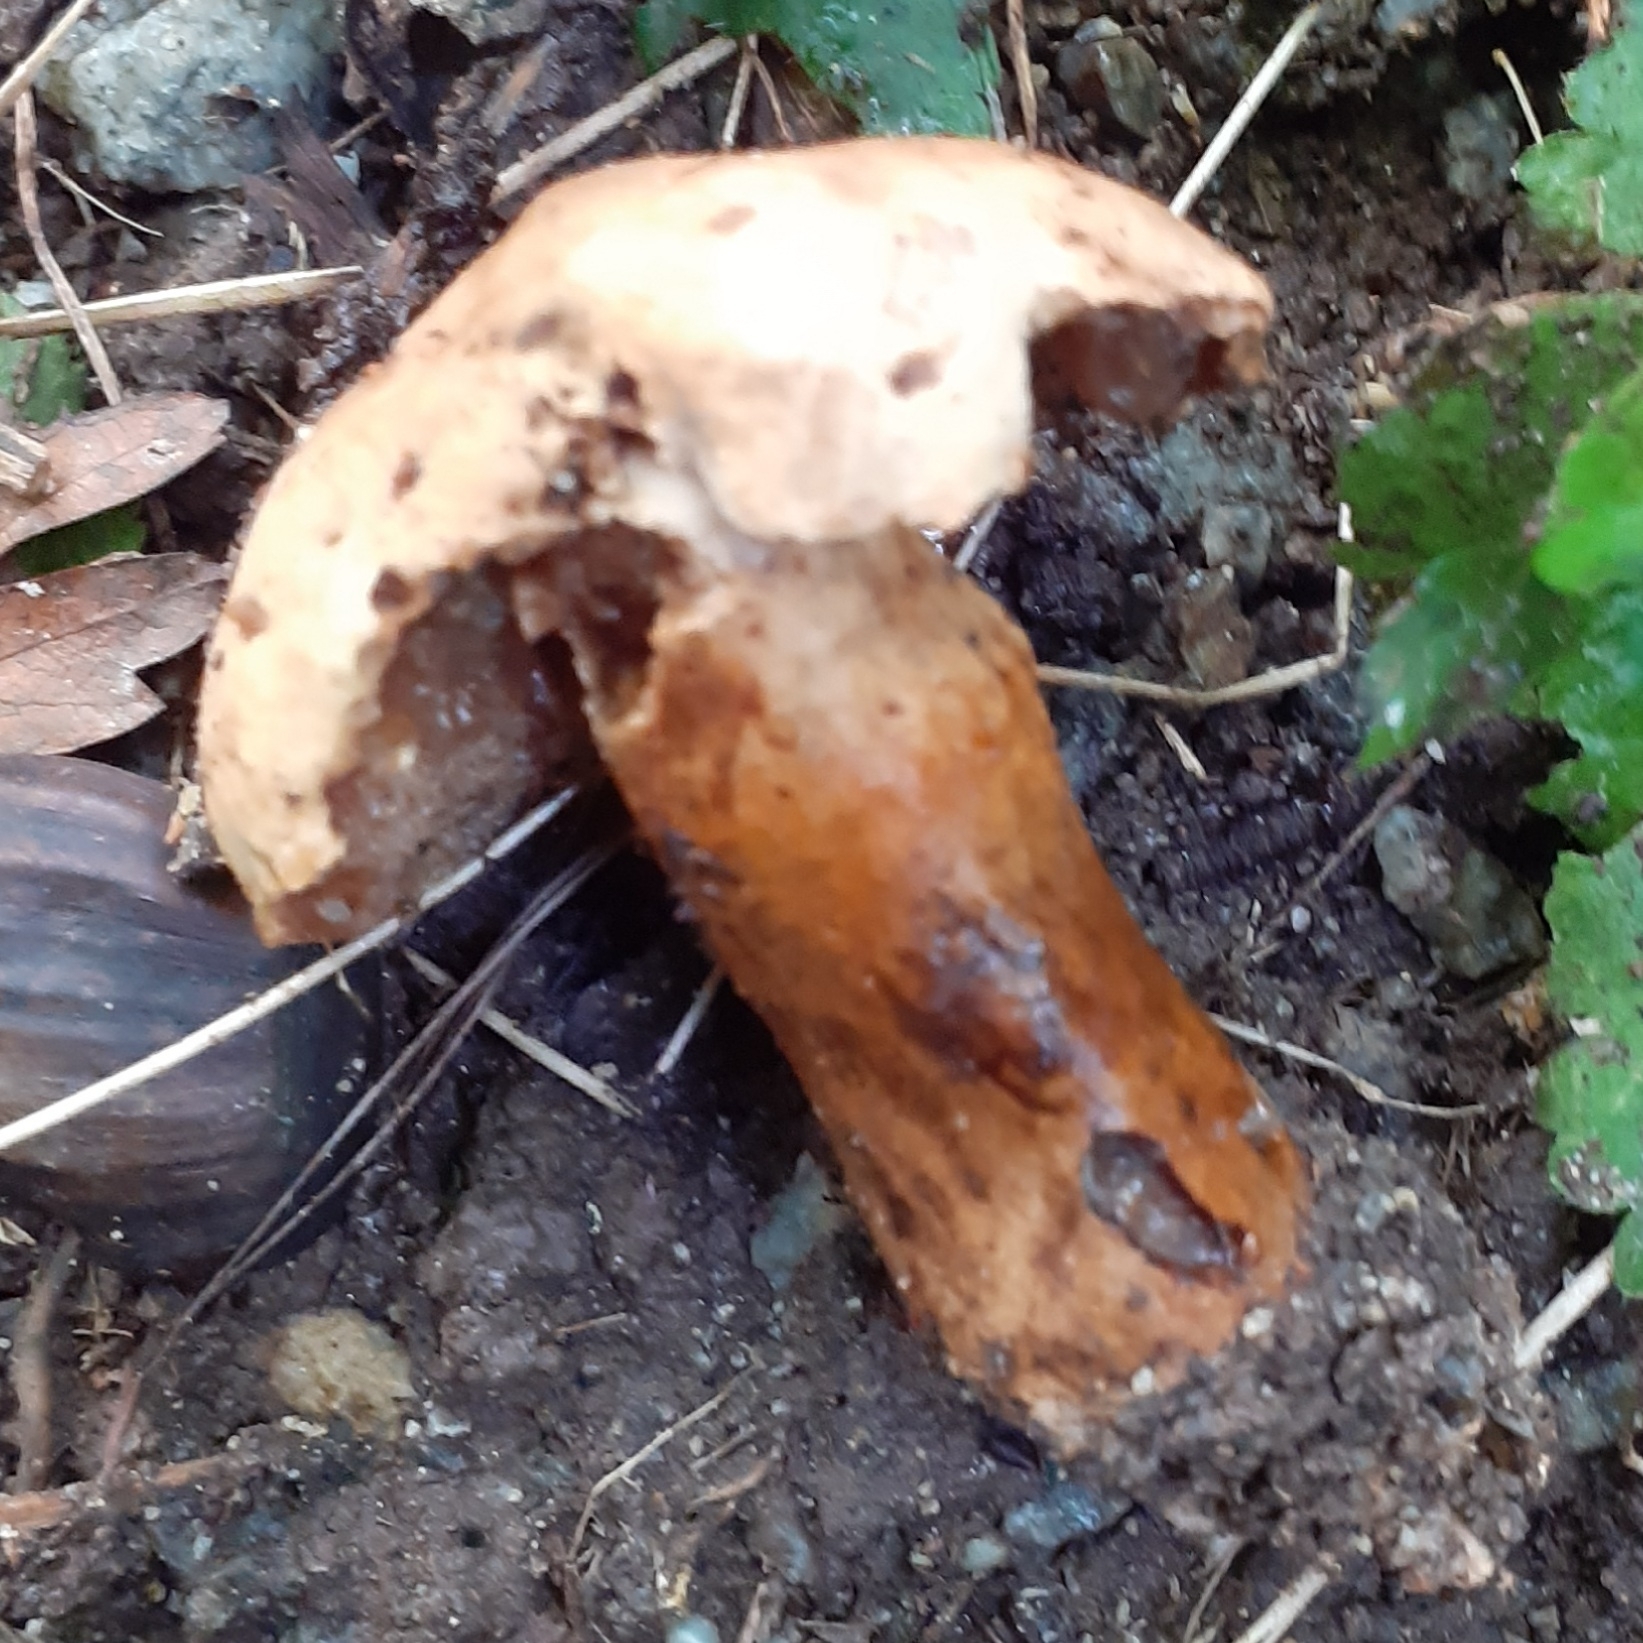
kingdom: Fungi
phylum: Basidiomycota
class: Agaricomycetes
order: Boletales
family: Gyroporaceae
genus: Gyroporus
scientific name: Gyroporus castaneus
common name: Chestnut bolete
